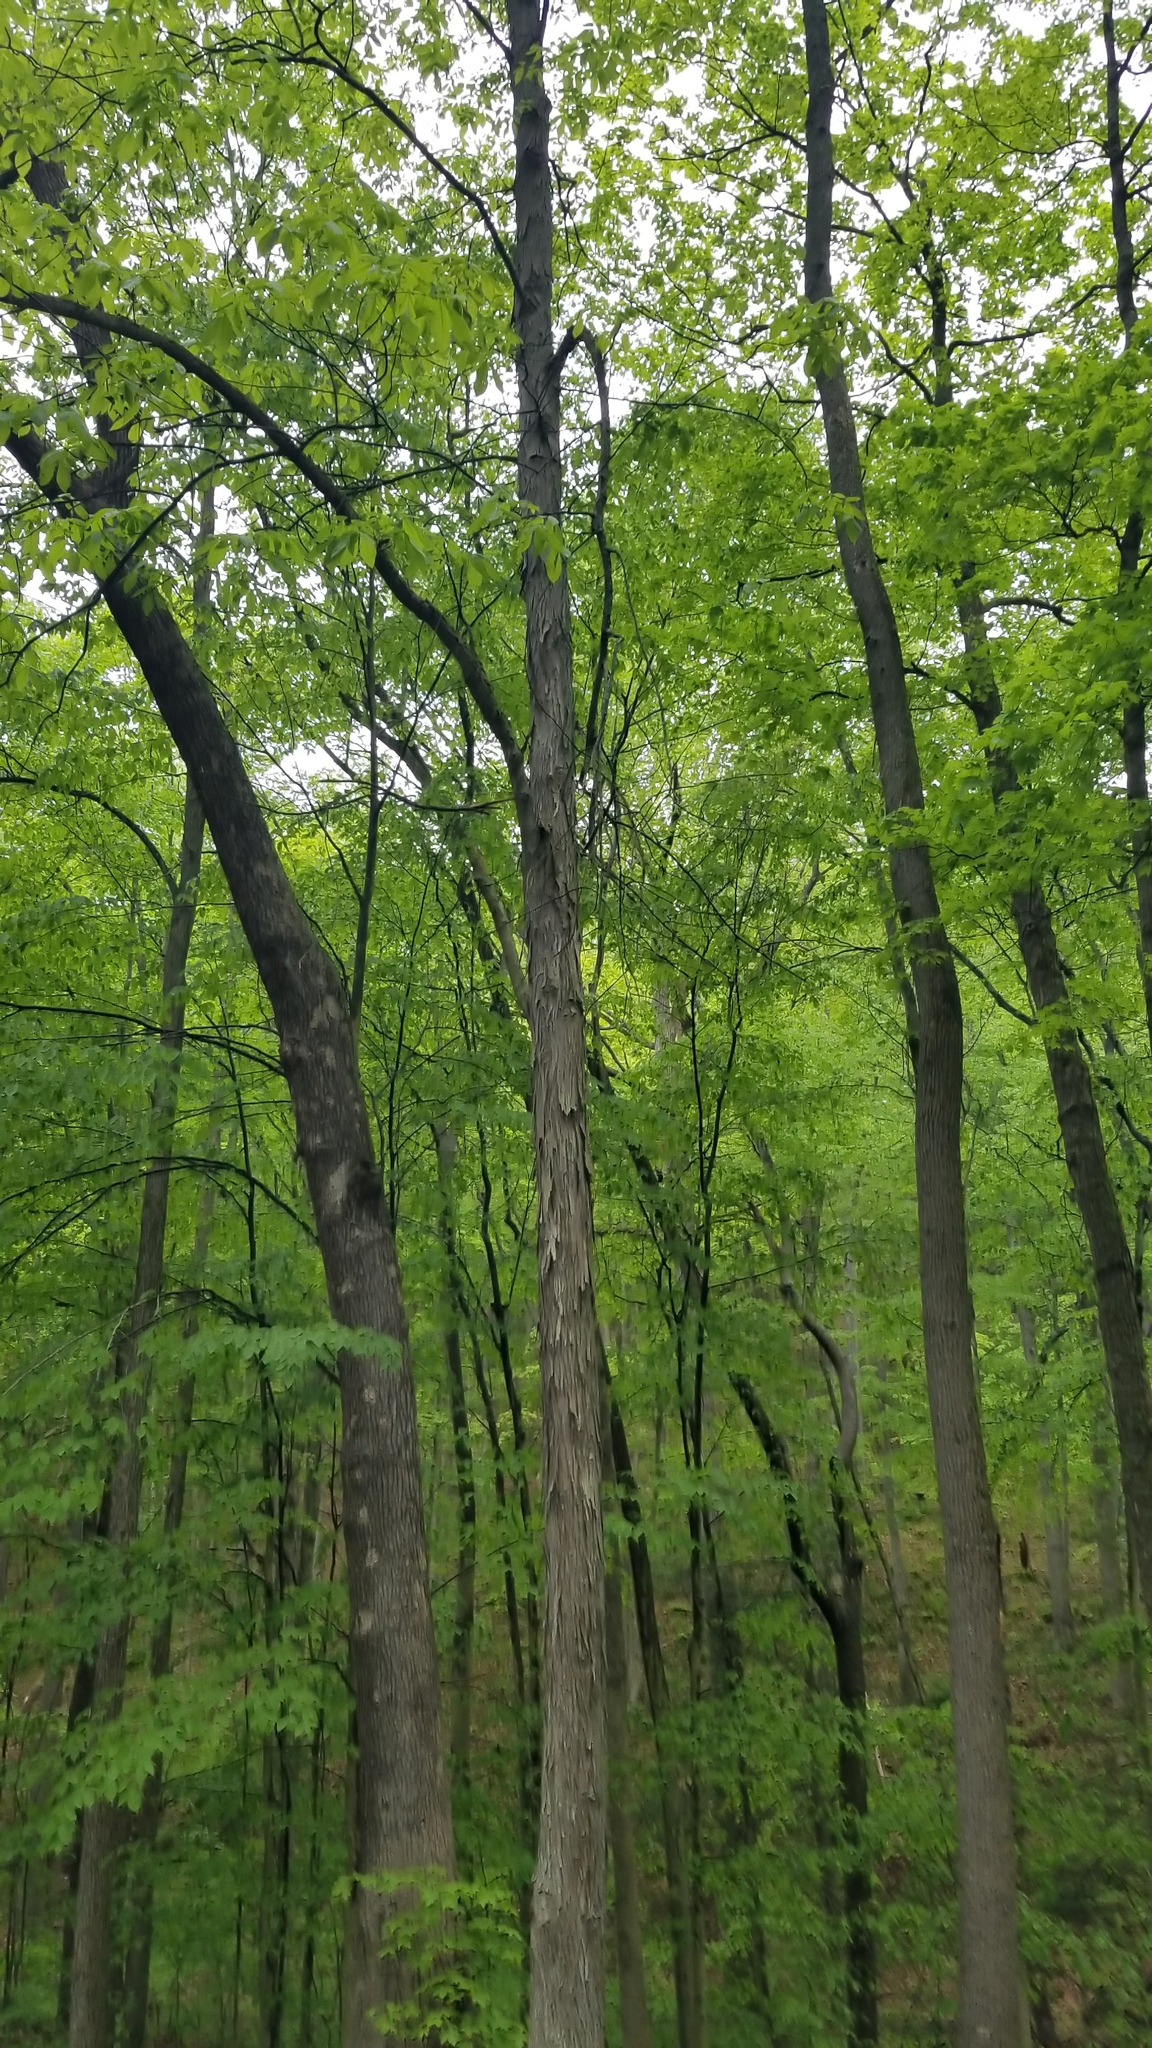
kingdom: Plantae
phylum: Tracheophyta
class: Magnoliopsida
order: Fagales
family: Juglandaceae
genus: Carya
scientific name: Carya ovata
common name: Shagbark hickory
